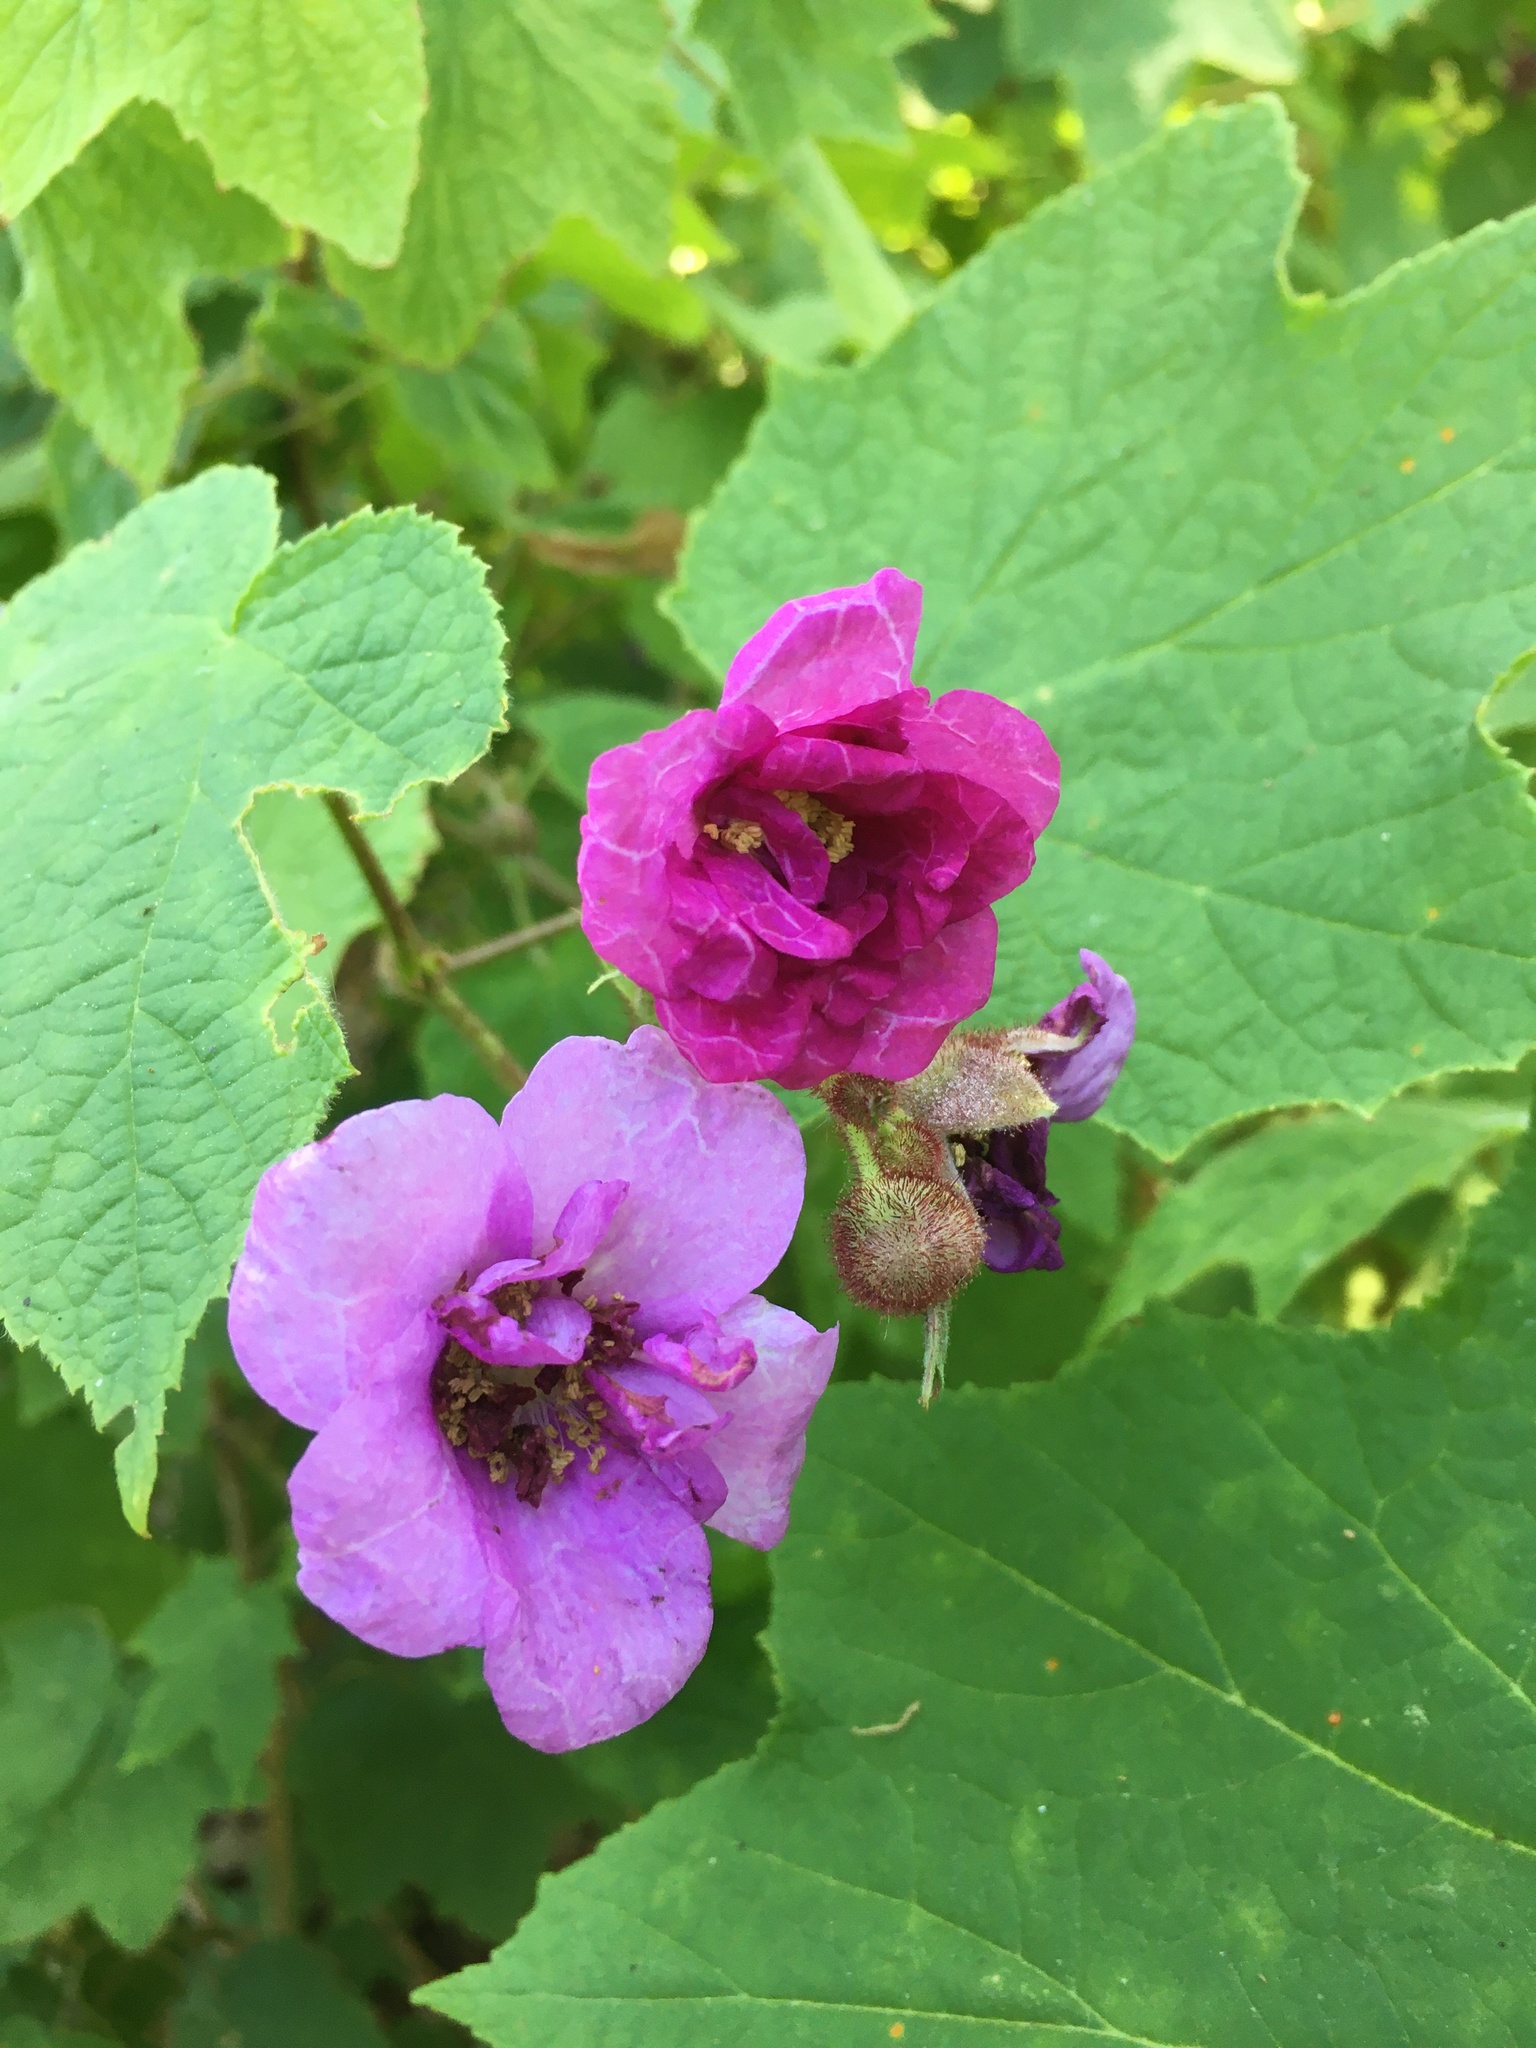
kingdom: Plantae
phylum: Tracheophyta
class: Magnoliopsida
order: Rosales
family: Rosaceae
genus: Rubus
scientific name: Rubus odoratus
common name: Purple-flowered raspberry
